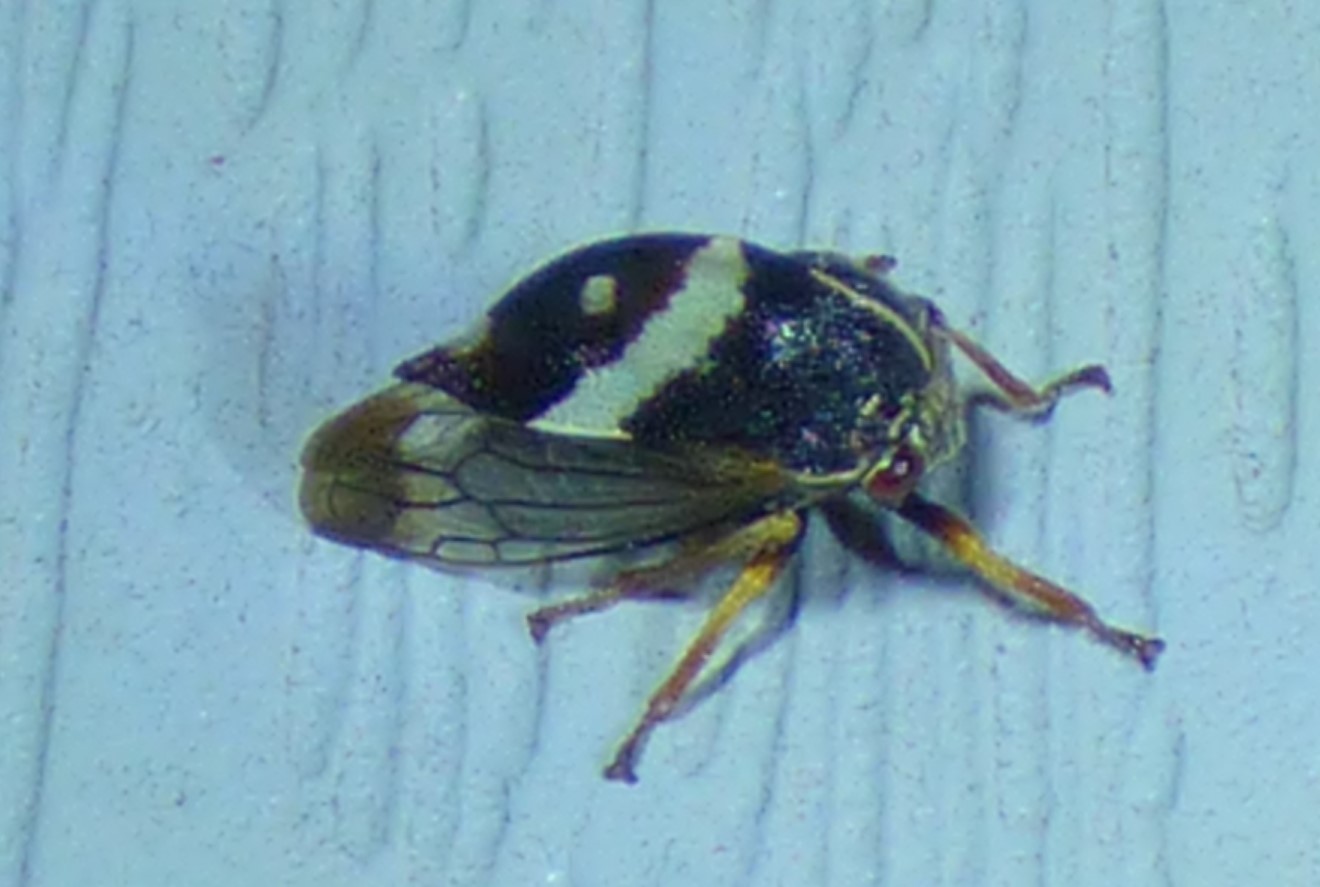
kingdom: Animalia
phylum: Arthropoda
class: Insecta
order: Hemiptera
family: Membracidae
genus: Smilia
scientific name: Smilia fasciata
